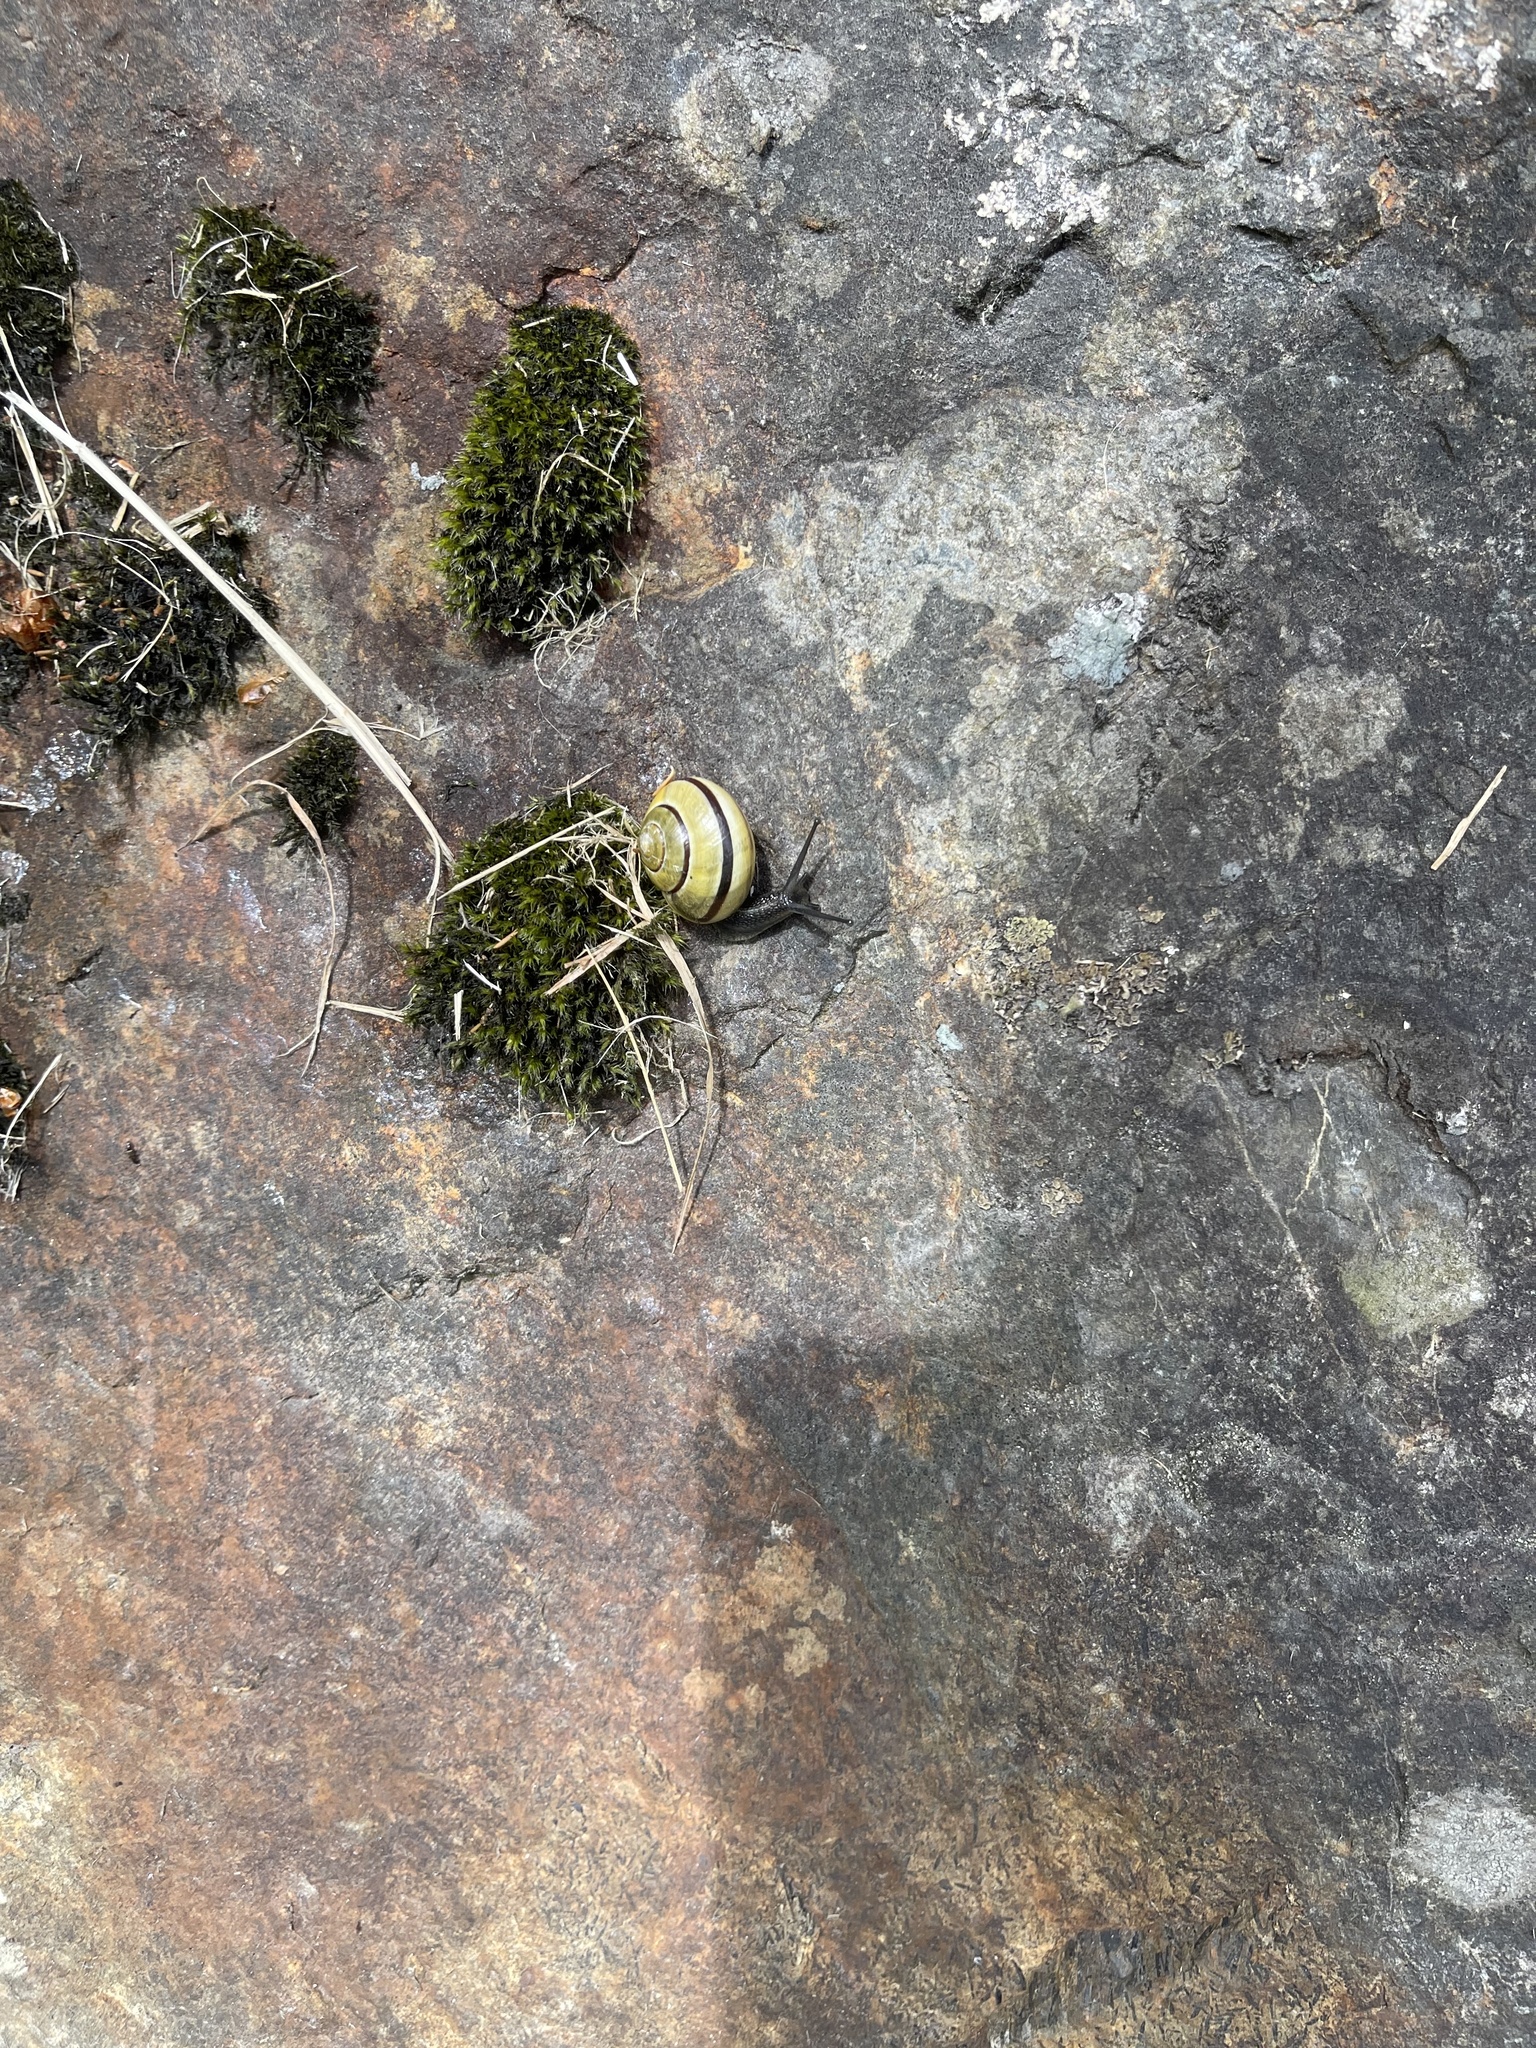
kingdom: Animalia
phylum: Mollusca
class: Gastropoda
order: Stylommatophora
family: Helicidae
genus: Cepaea
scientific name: Cepaea nemoralis
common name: Grovesnail
